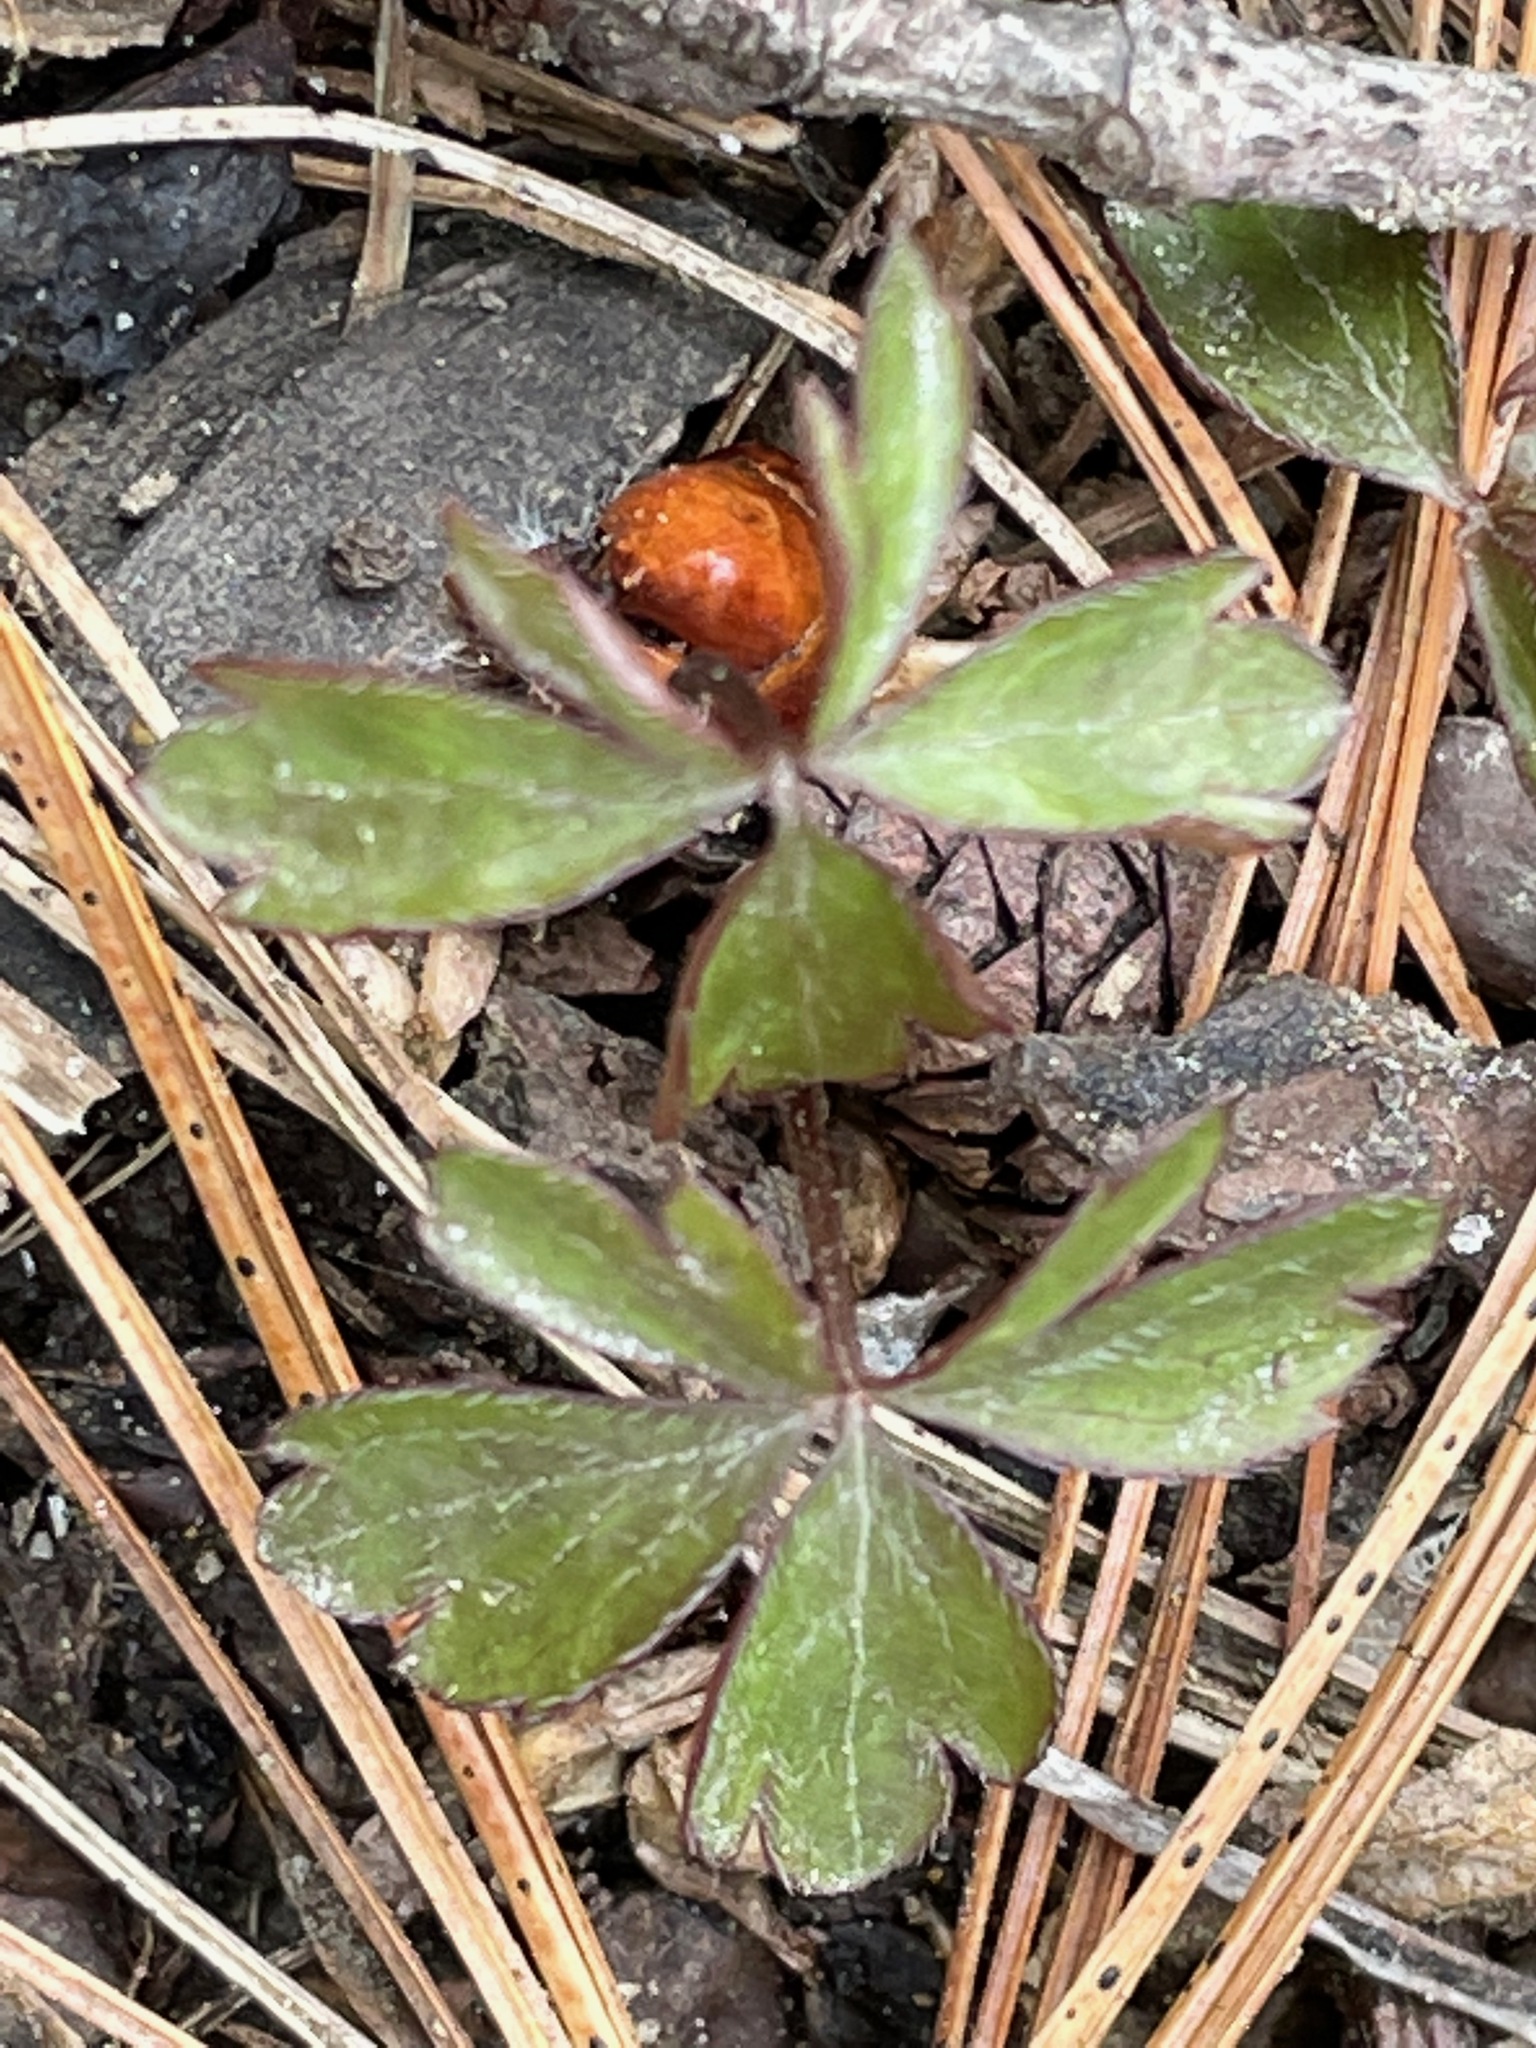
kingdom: Plantae
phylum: Tracheophyta
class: Magnoliopsida
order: Ranunculales
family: Ranunculaceae
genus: Anemone
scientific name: Anemone quinquefolia
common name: Wood anemone
